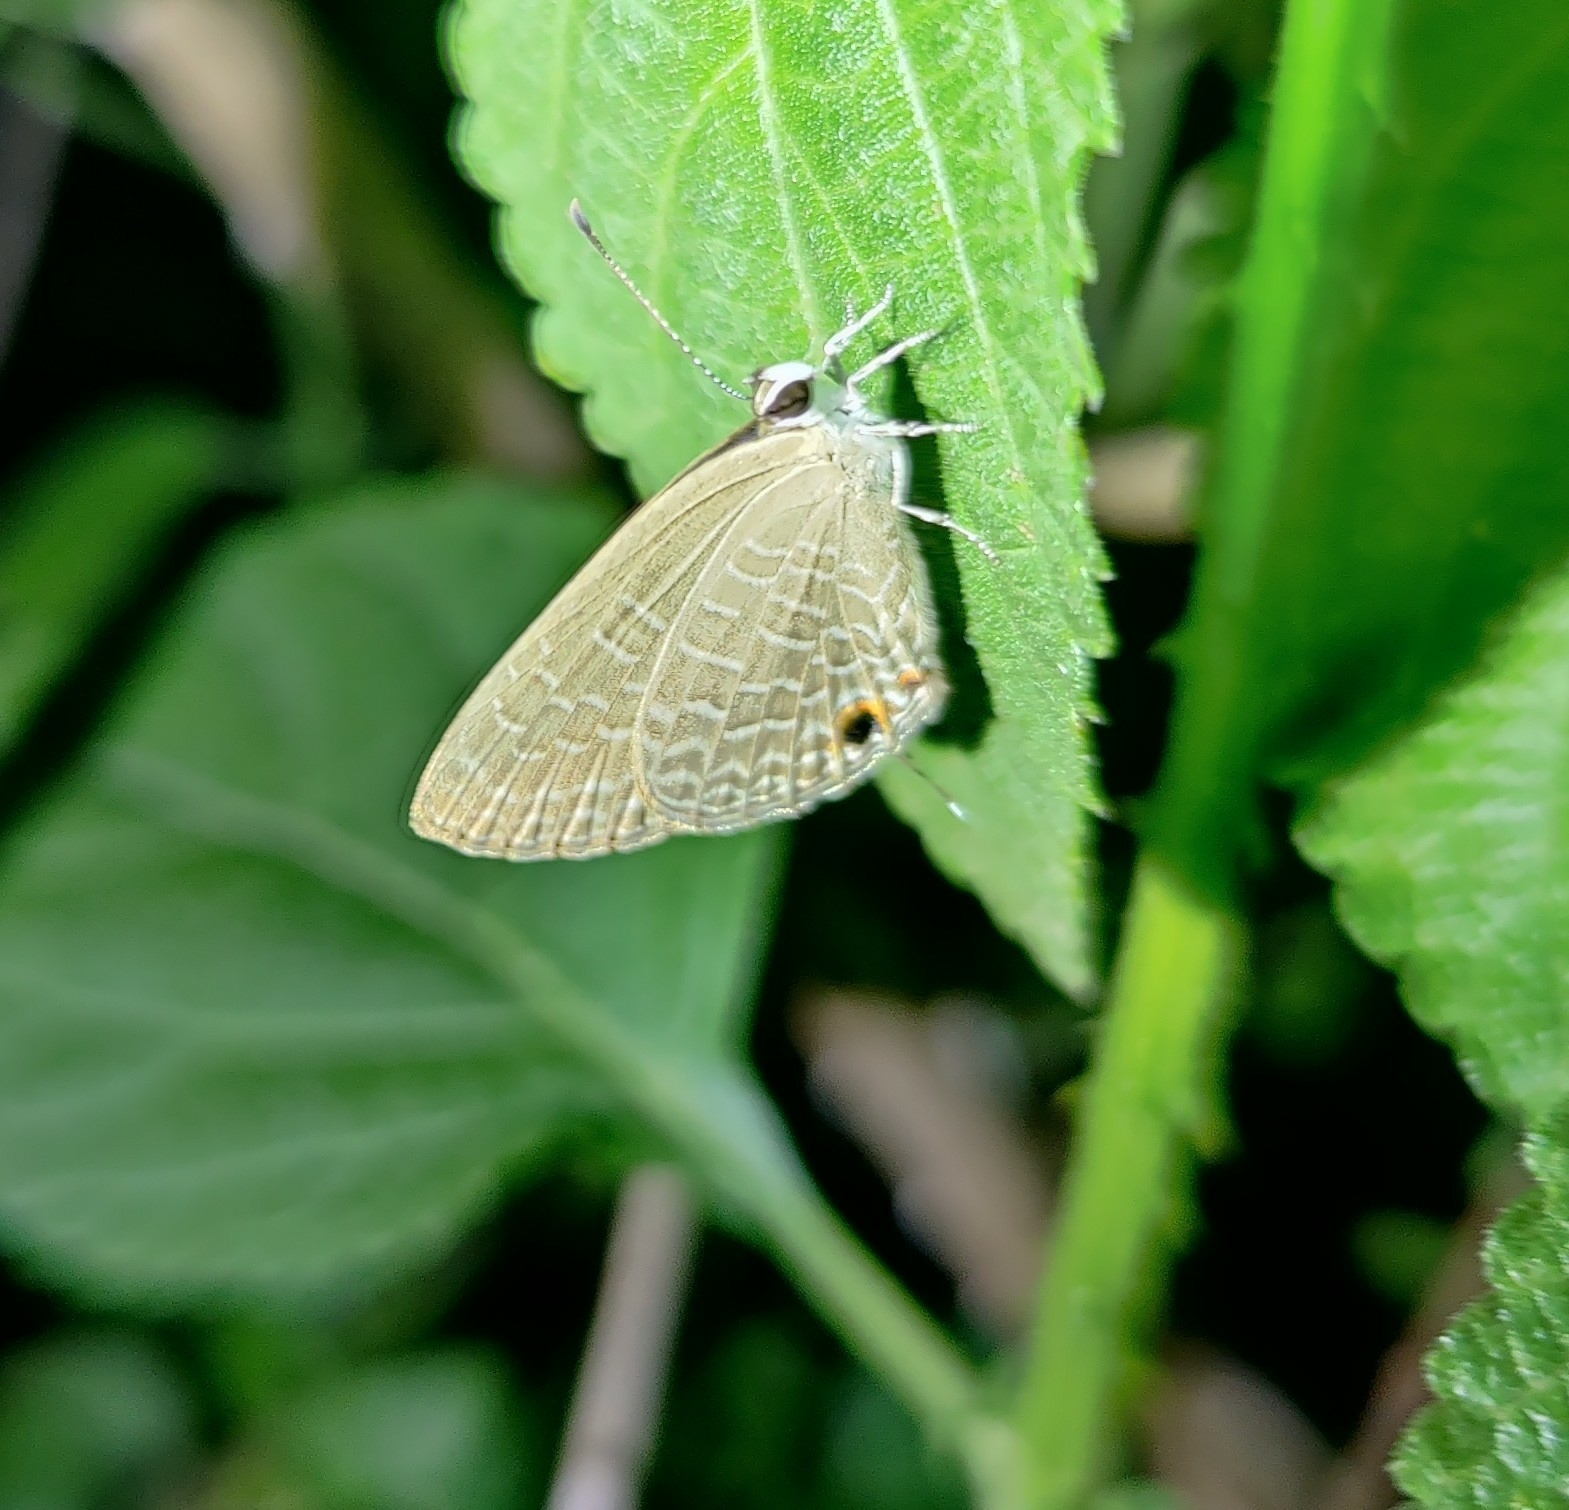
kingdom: Animalia
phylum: Arthropoda
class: Insecta
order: Lepidoptera
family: Lycaenidae
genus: Jamides
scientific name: Jamides bochus
